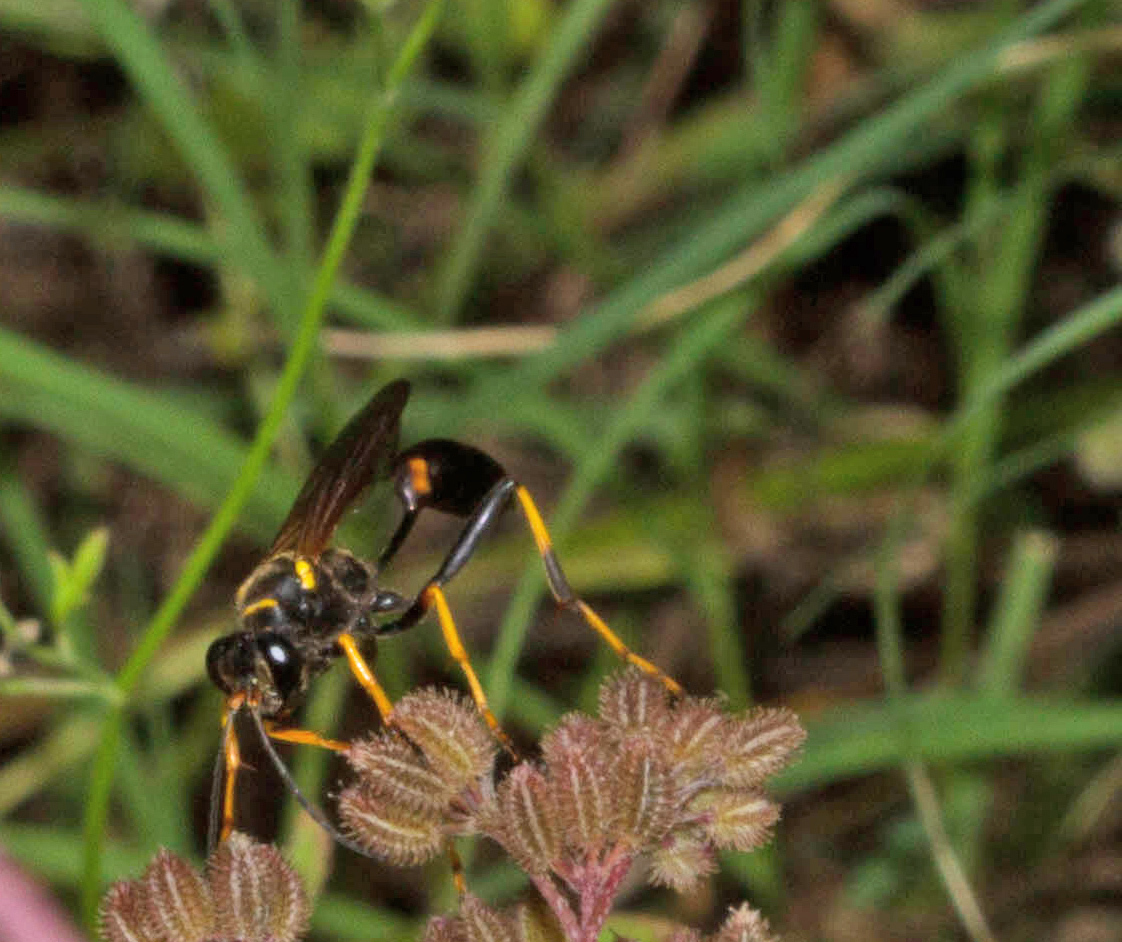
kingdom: Animalia
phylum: Arthropoda
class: Insecta
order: Hymenoptera
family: Sphecidae
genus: Sceliphron
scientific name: Sceliphron caementarium
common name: Mud dauber
